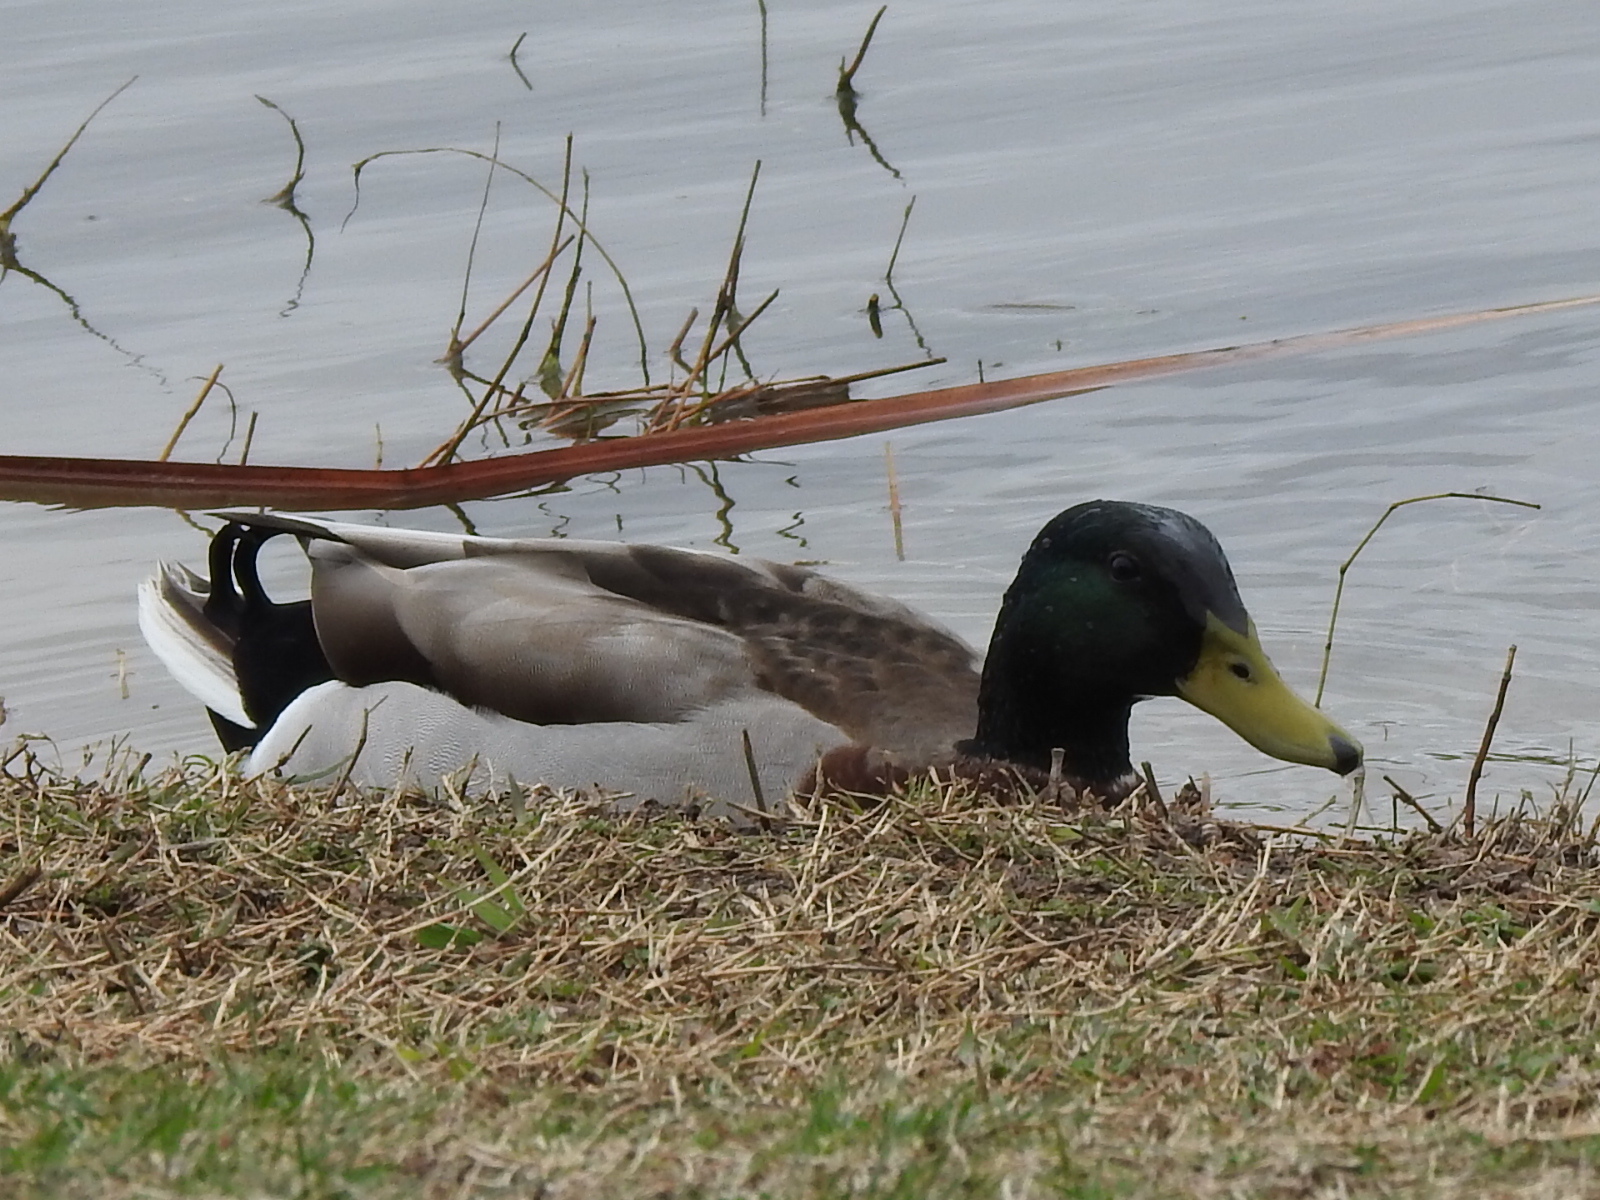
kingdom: Animalia
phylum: Chordata
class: Aves
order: Anseriformes
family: Anatidae
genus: Anas
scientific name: Anas platyrhynchos
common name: Mallard
